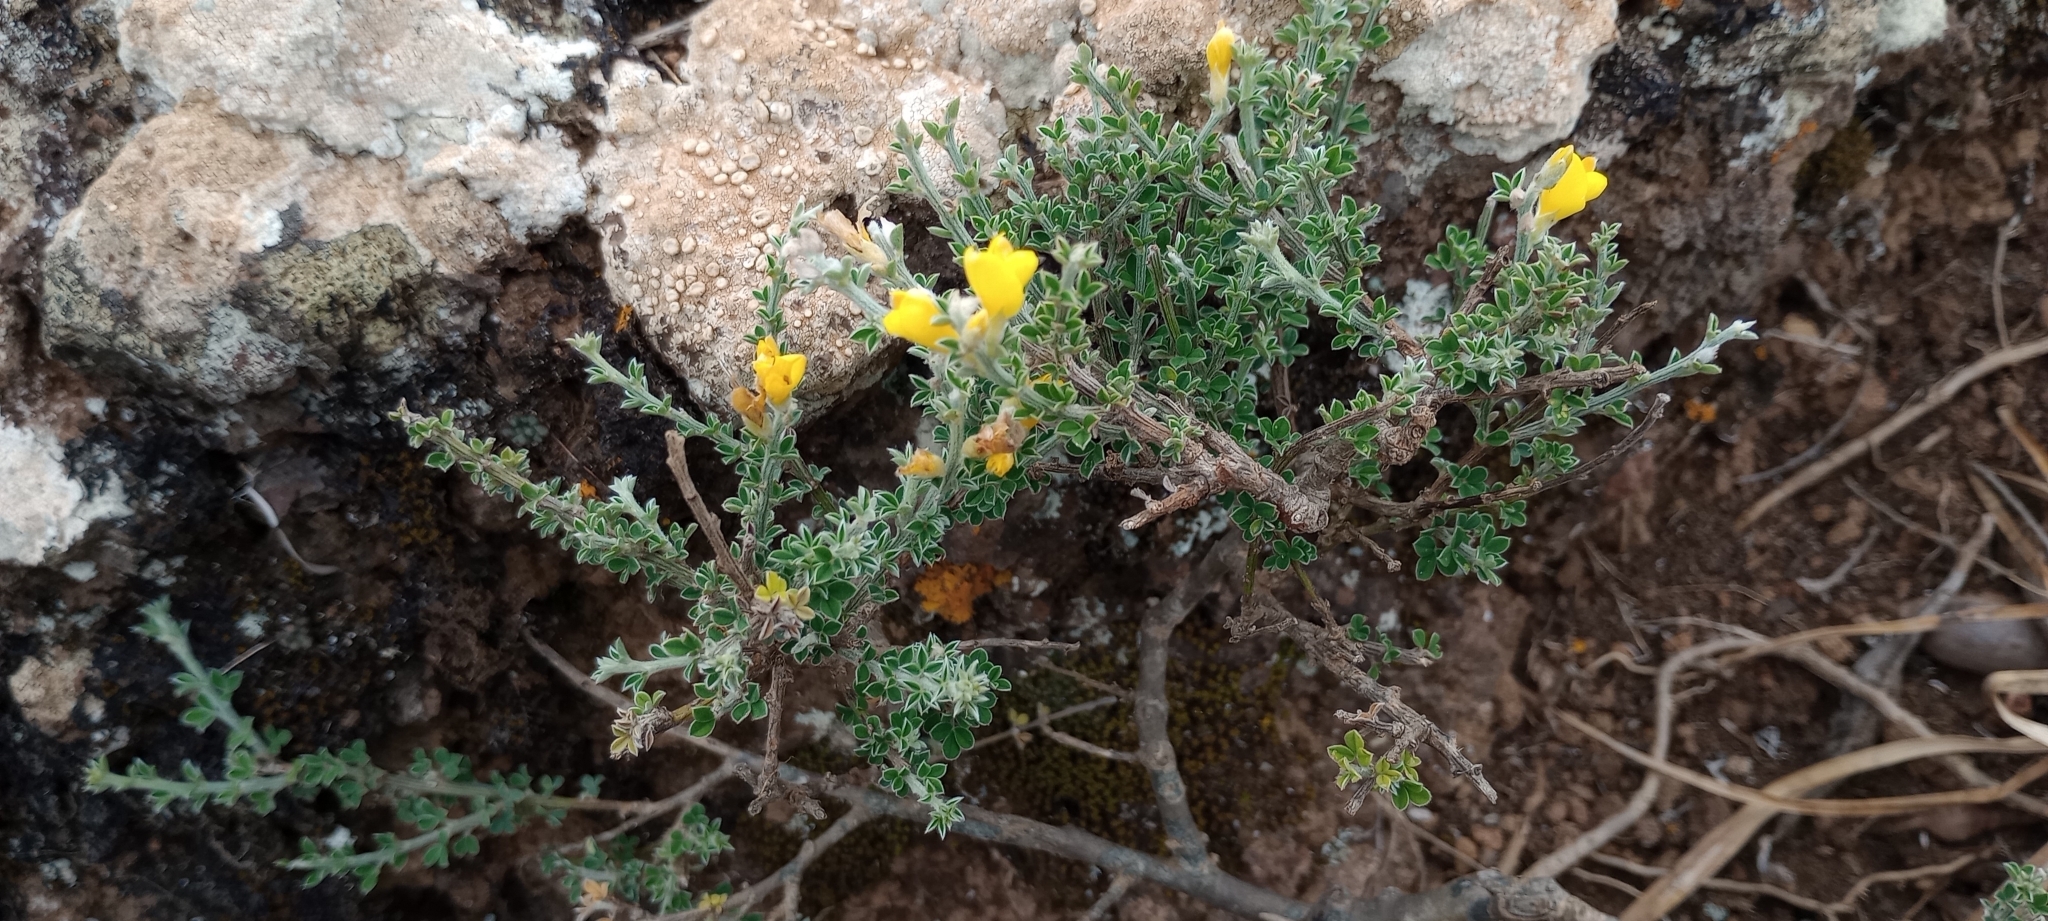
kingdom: Plantae
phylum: Tracheophyta
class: Magnoliopsida
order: Fabales
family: Fabaceae
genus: Genista
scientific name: Genista canariensis
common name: Canary broom
